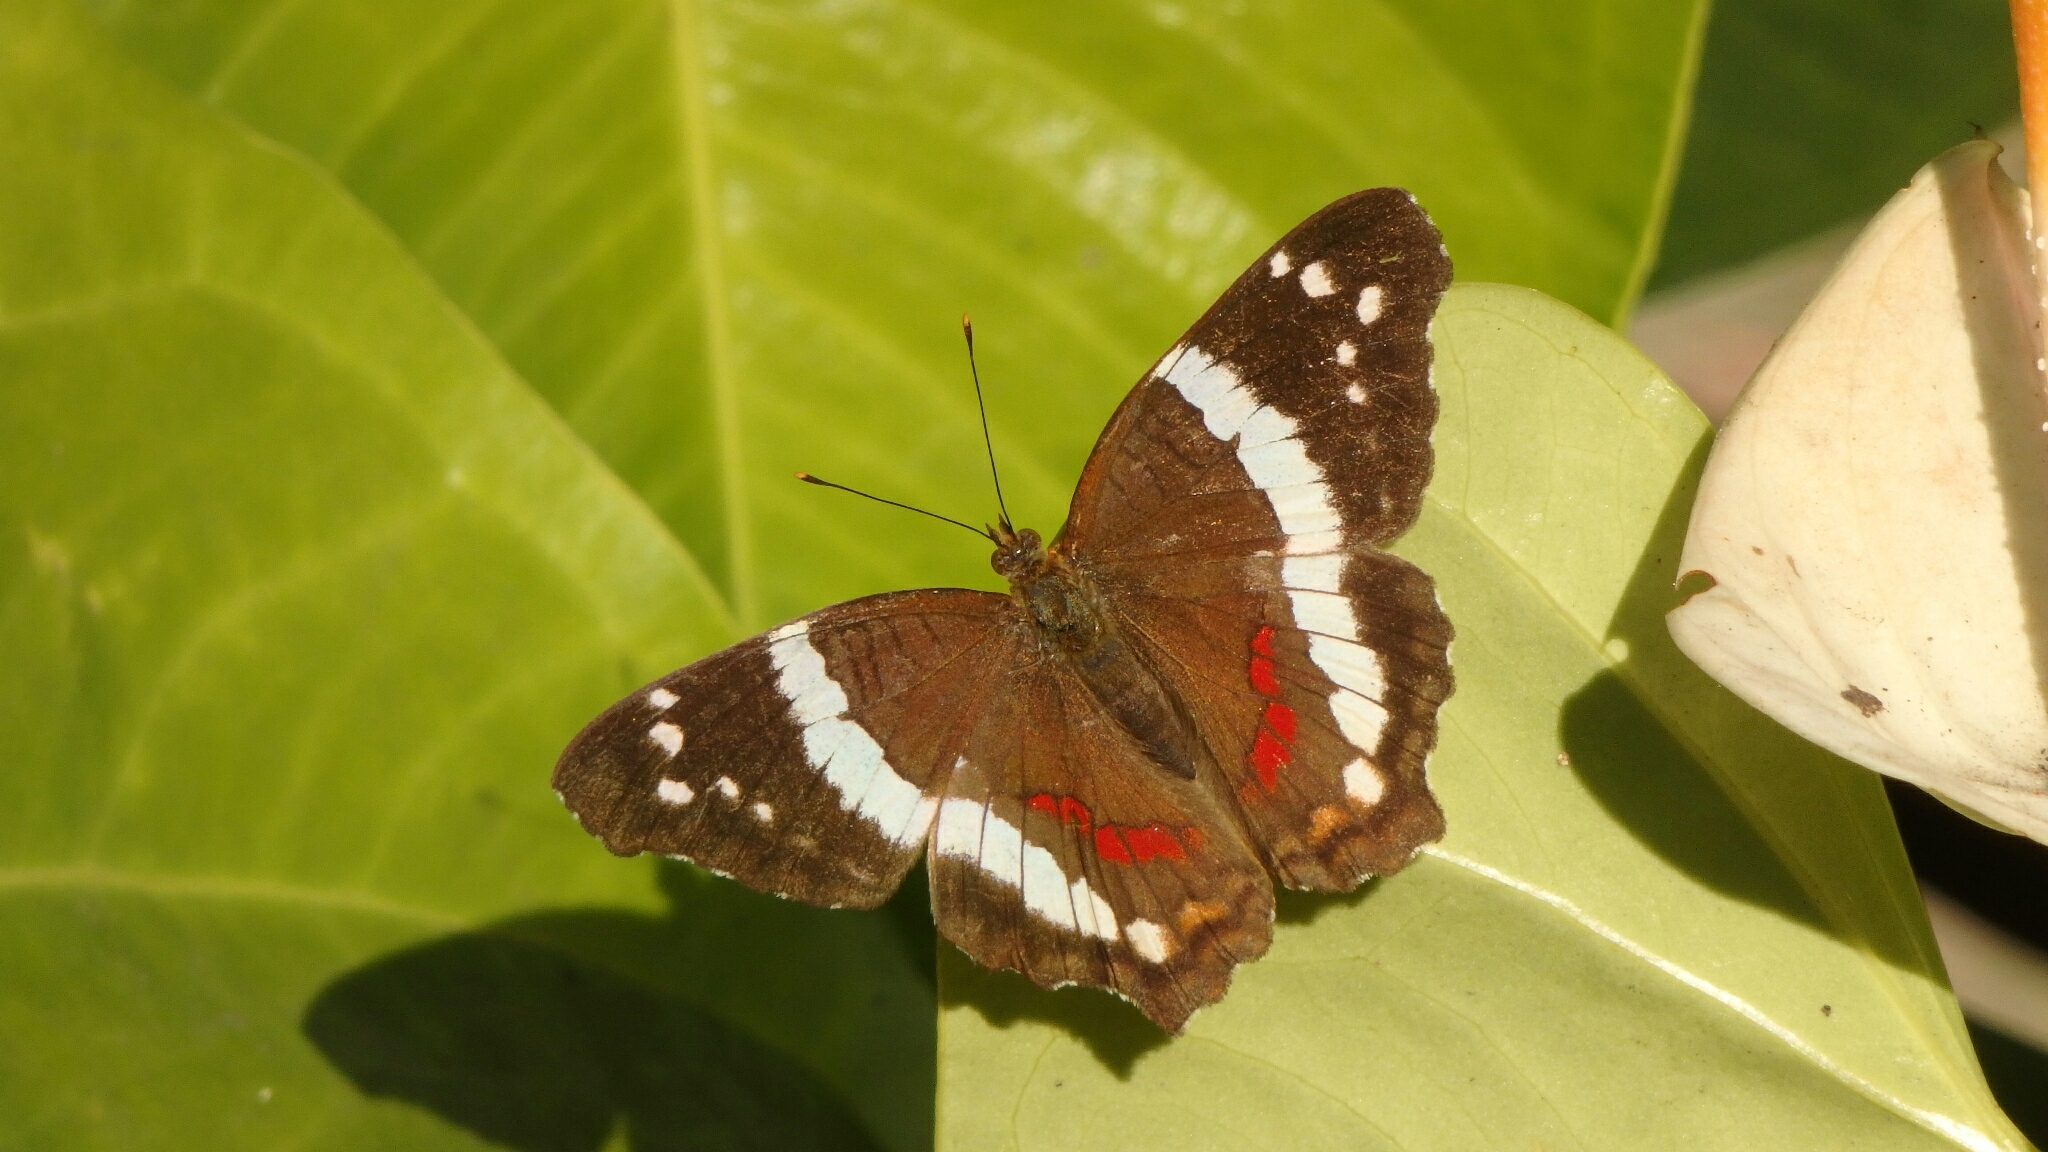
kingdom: Animalia
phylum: Arthropoda
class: Insecta
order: Lepidoptera
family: Nymphalidae
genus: Anartia
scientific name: Anartia fatima
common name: Banded peacock
